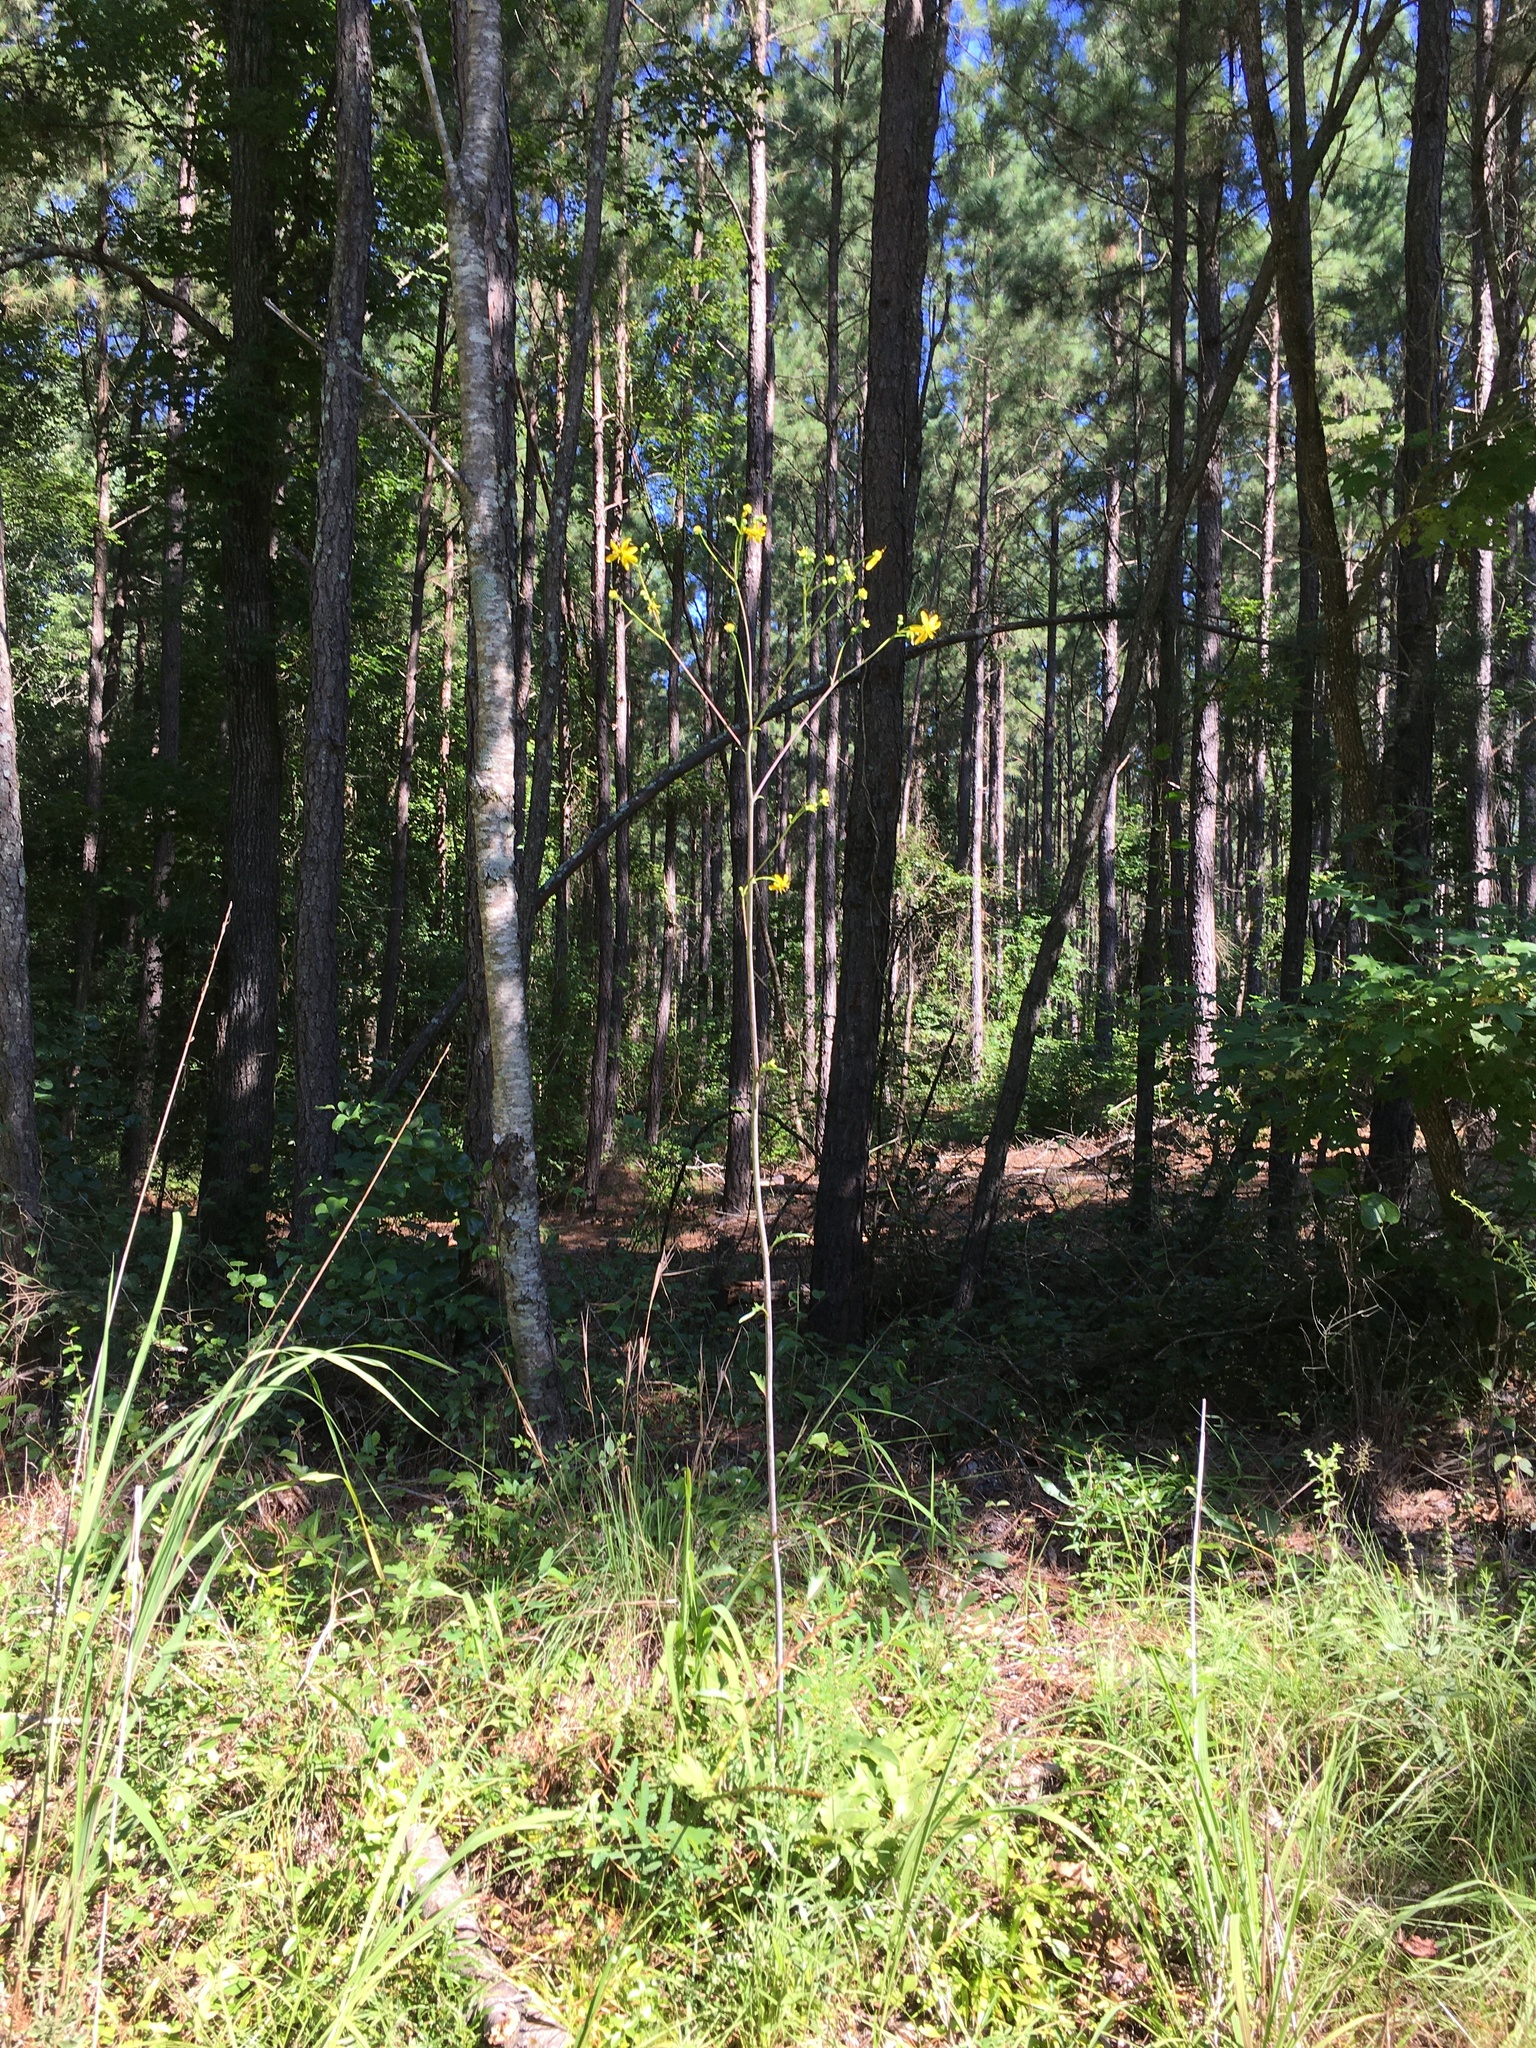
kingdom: Plantae
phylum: Tracheophyta
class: Magnoliopsida
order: Asterales
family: Asteraceae
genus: Silphium
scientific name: Silphium compositum
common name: Lesser basal-leaf rosinweed
